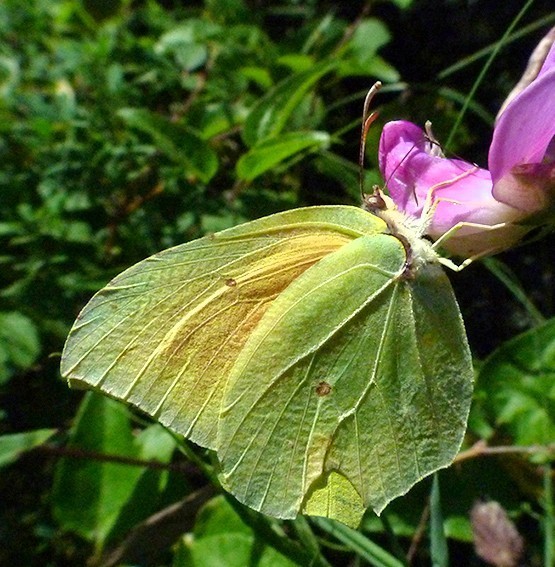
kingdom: Animalia
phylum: Arthropoda
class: Insecta
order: Lepidoptera
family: Pieridae
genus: Gonepteryx
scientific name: Gonepteryx cleopatra
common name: Cleopatra
